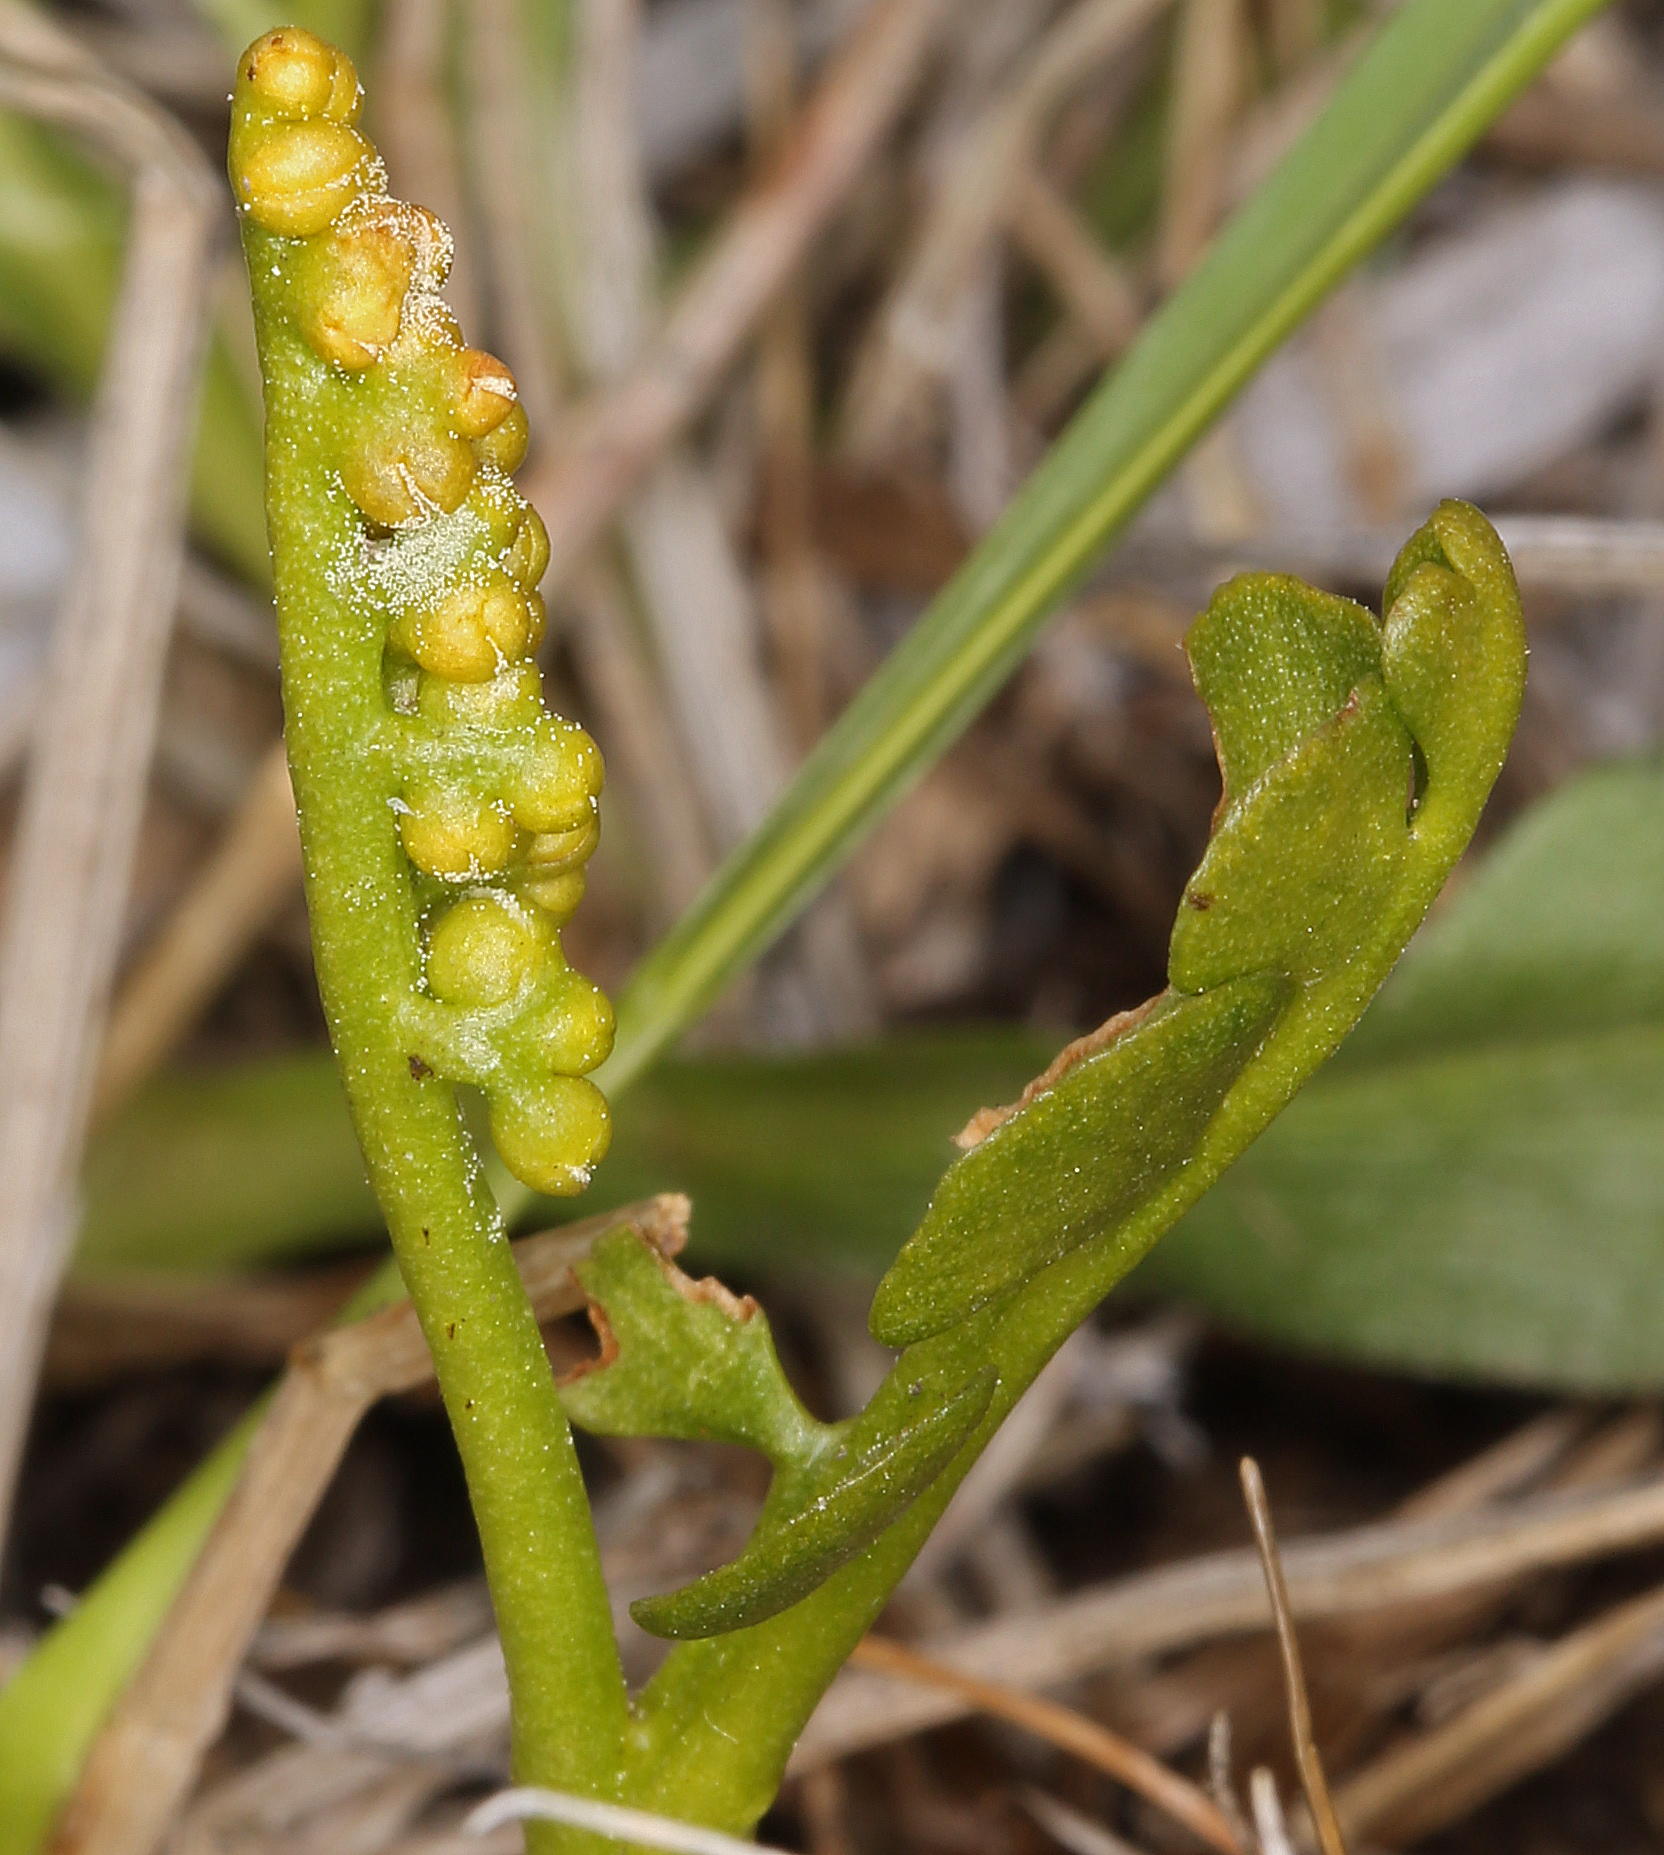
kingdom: Plantae
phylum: Tracheophyta
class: Polypodiopsida
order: Ophioglossales
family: Ophioglossaceae
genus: Botrychium
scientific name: Botrychium crenulatum
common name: Crenulate moonwort
